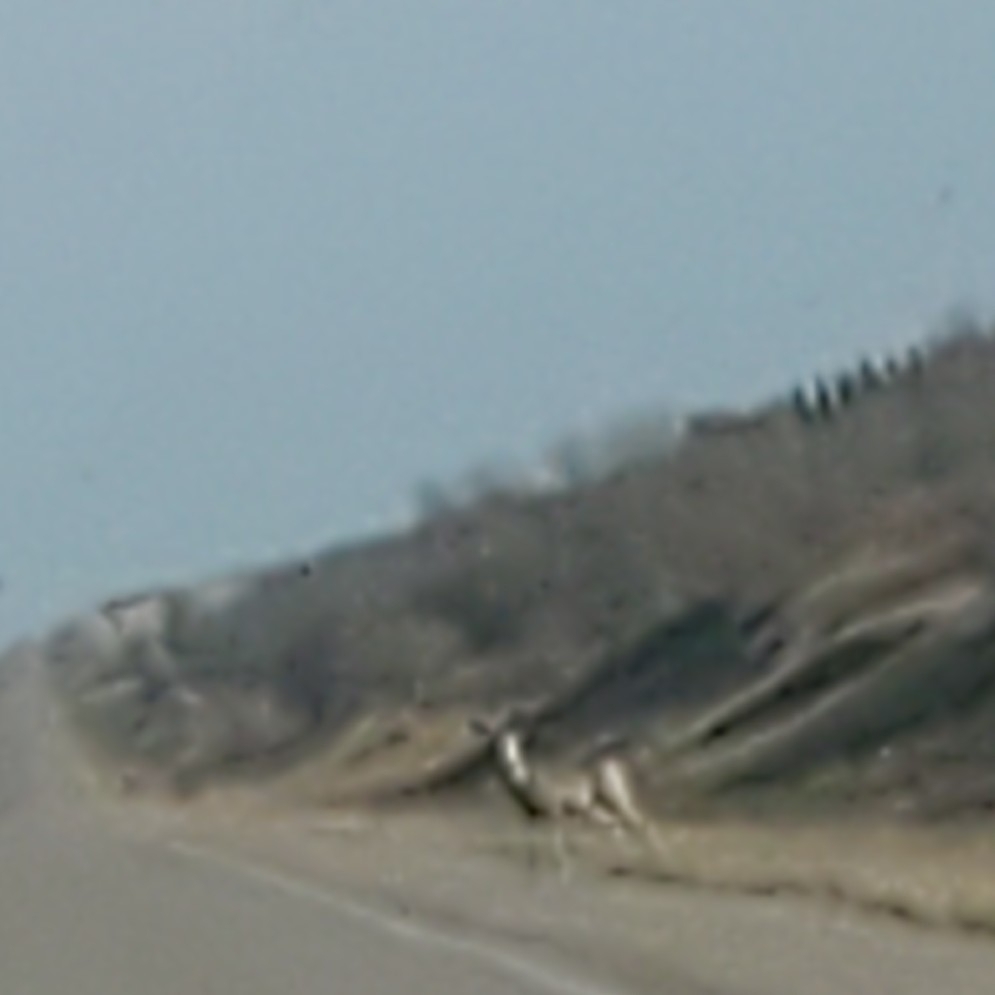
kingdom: Animalia
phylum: Chordata
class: Mammalia
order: Artiodactyla
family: Cervidae
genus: Odocoileus
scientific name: Odocoileus hemionus
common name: Mule deer
